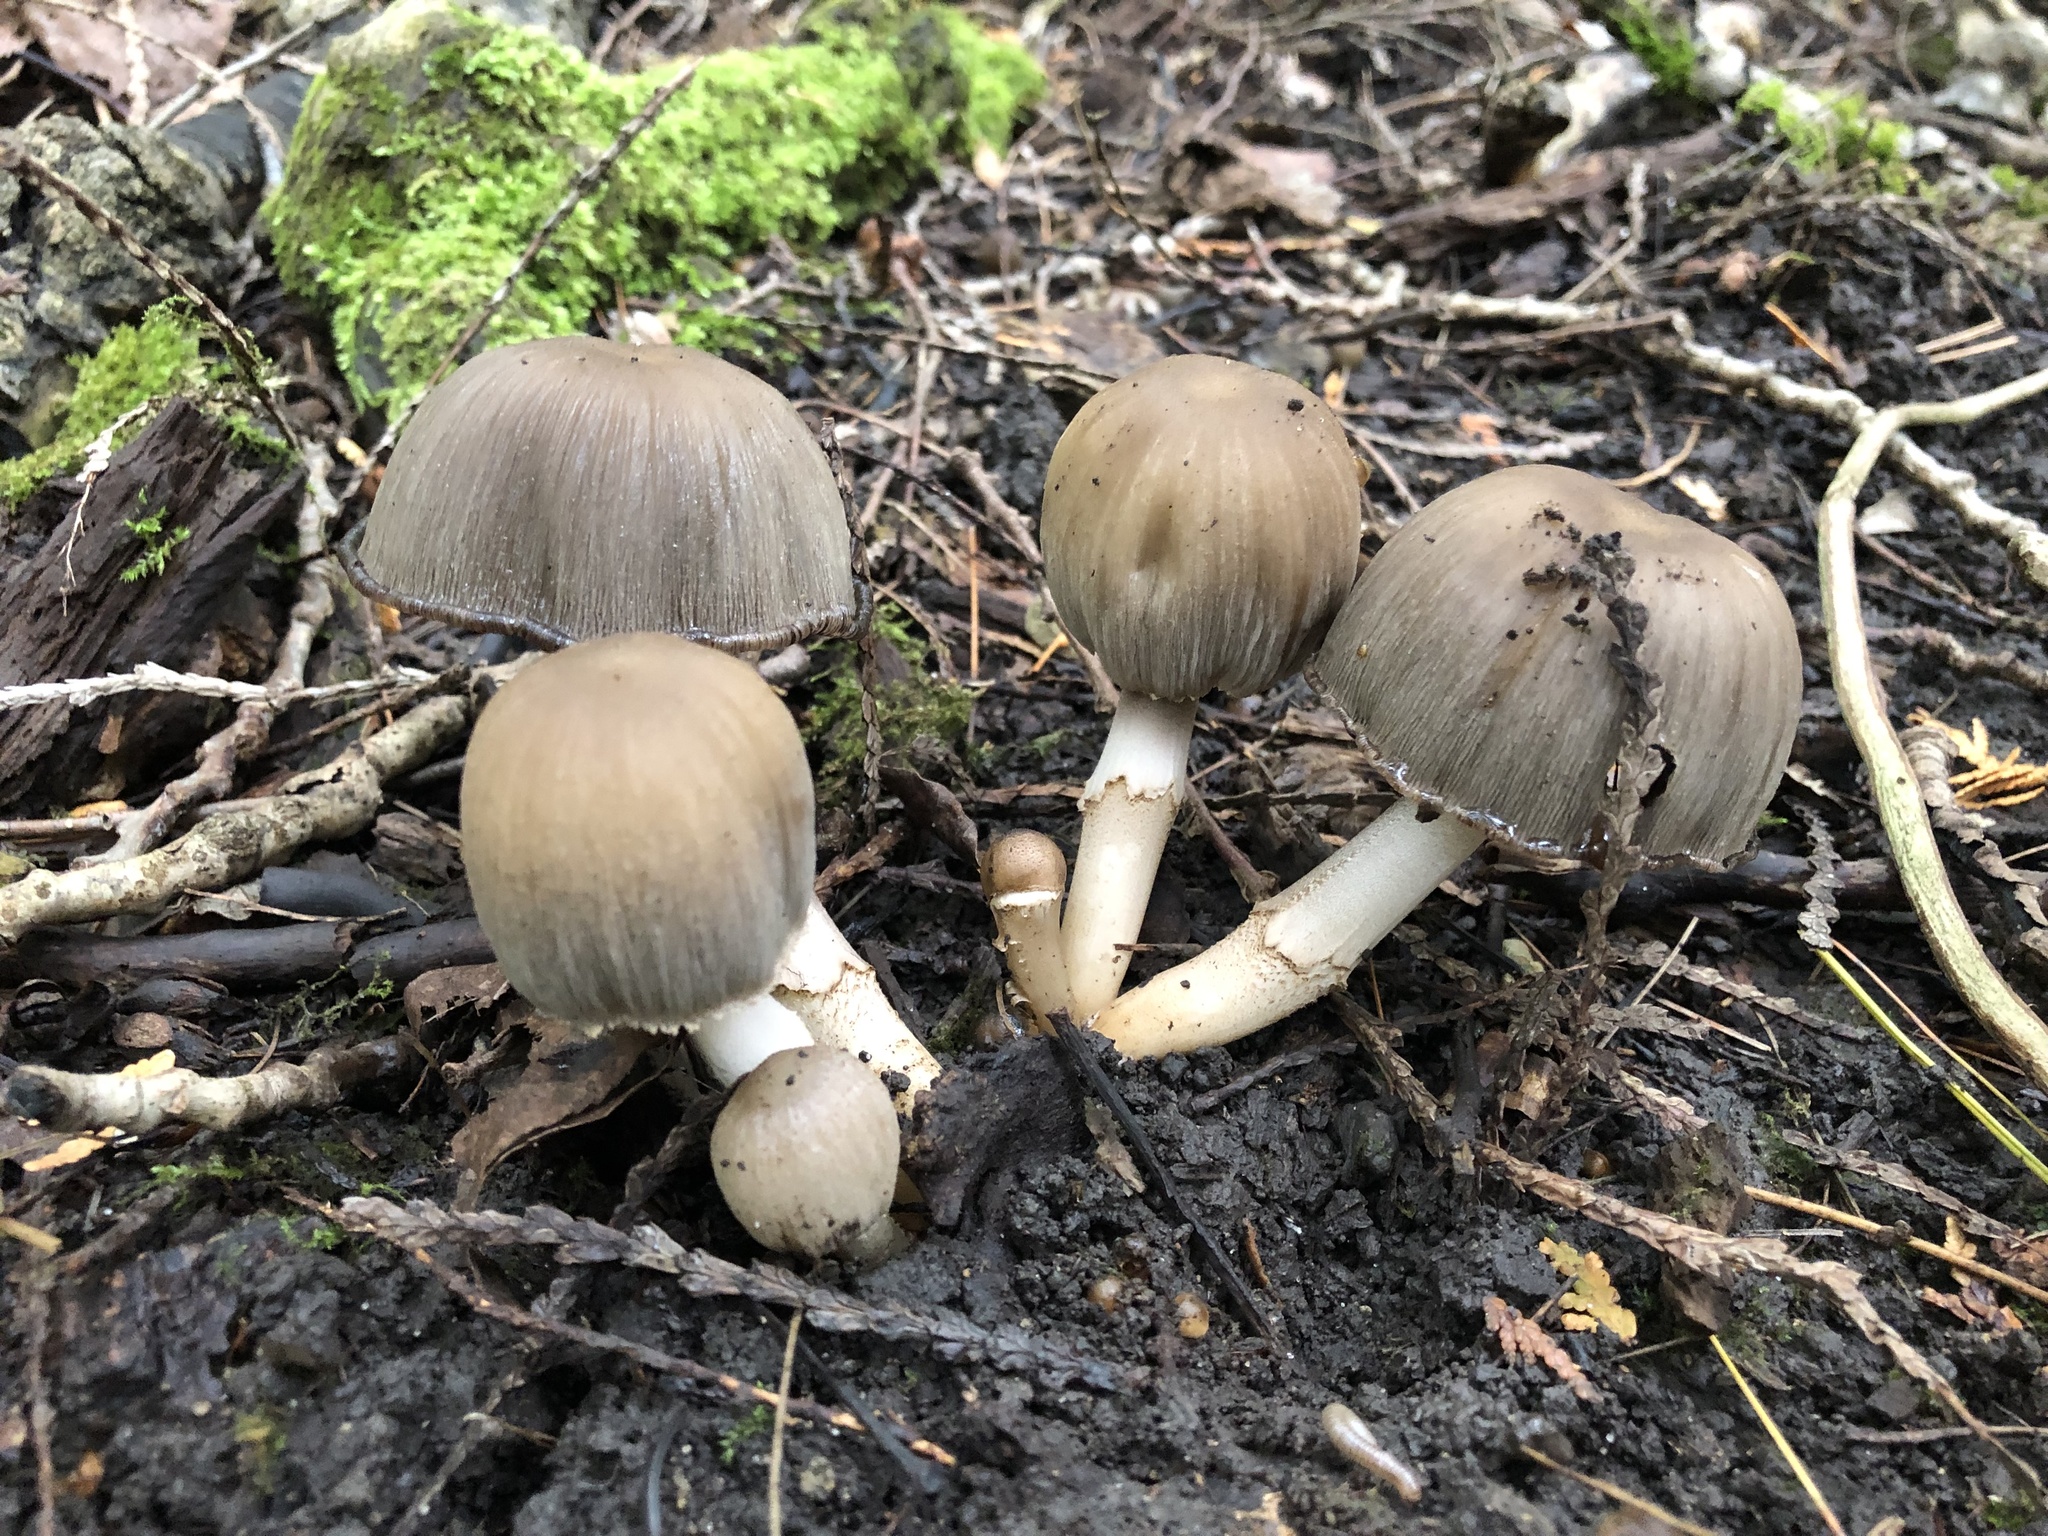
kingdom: Fungi
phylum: Basidiomycota
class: Agaricomycetes
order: Agaricales
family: Psathyrellaceae
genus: Coprinopsis
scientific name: Coprinopsis atramentaria
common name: Common ink-cap
